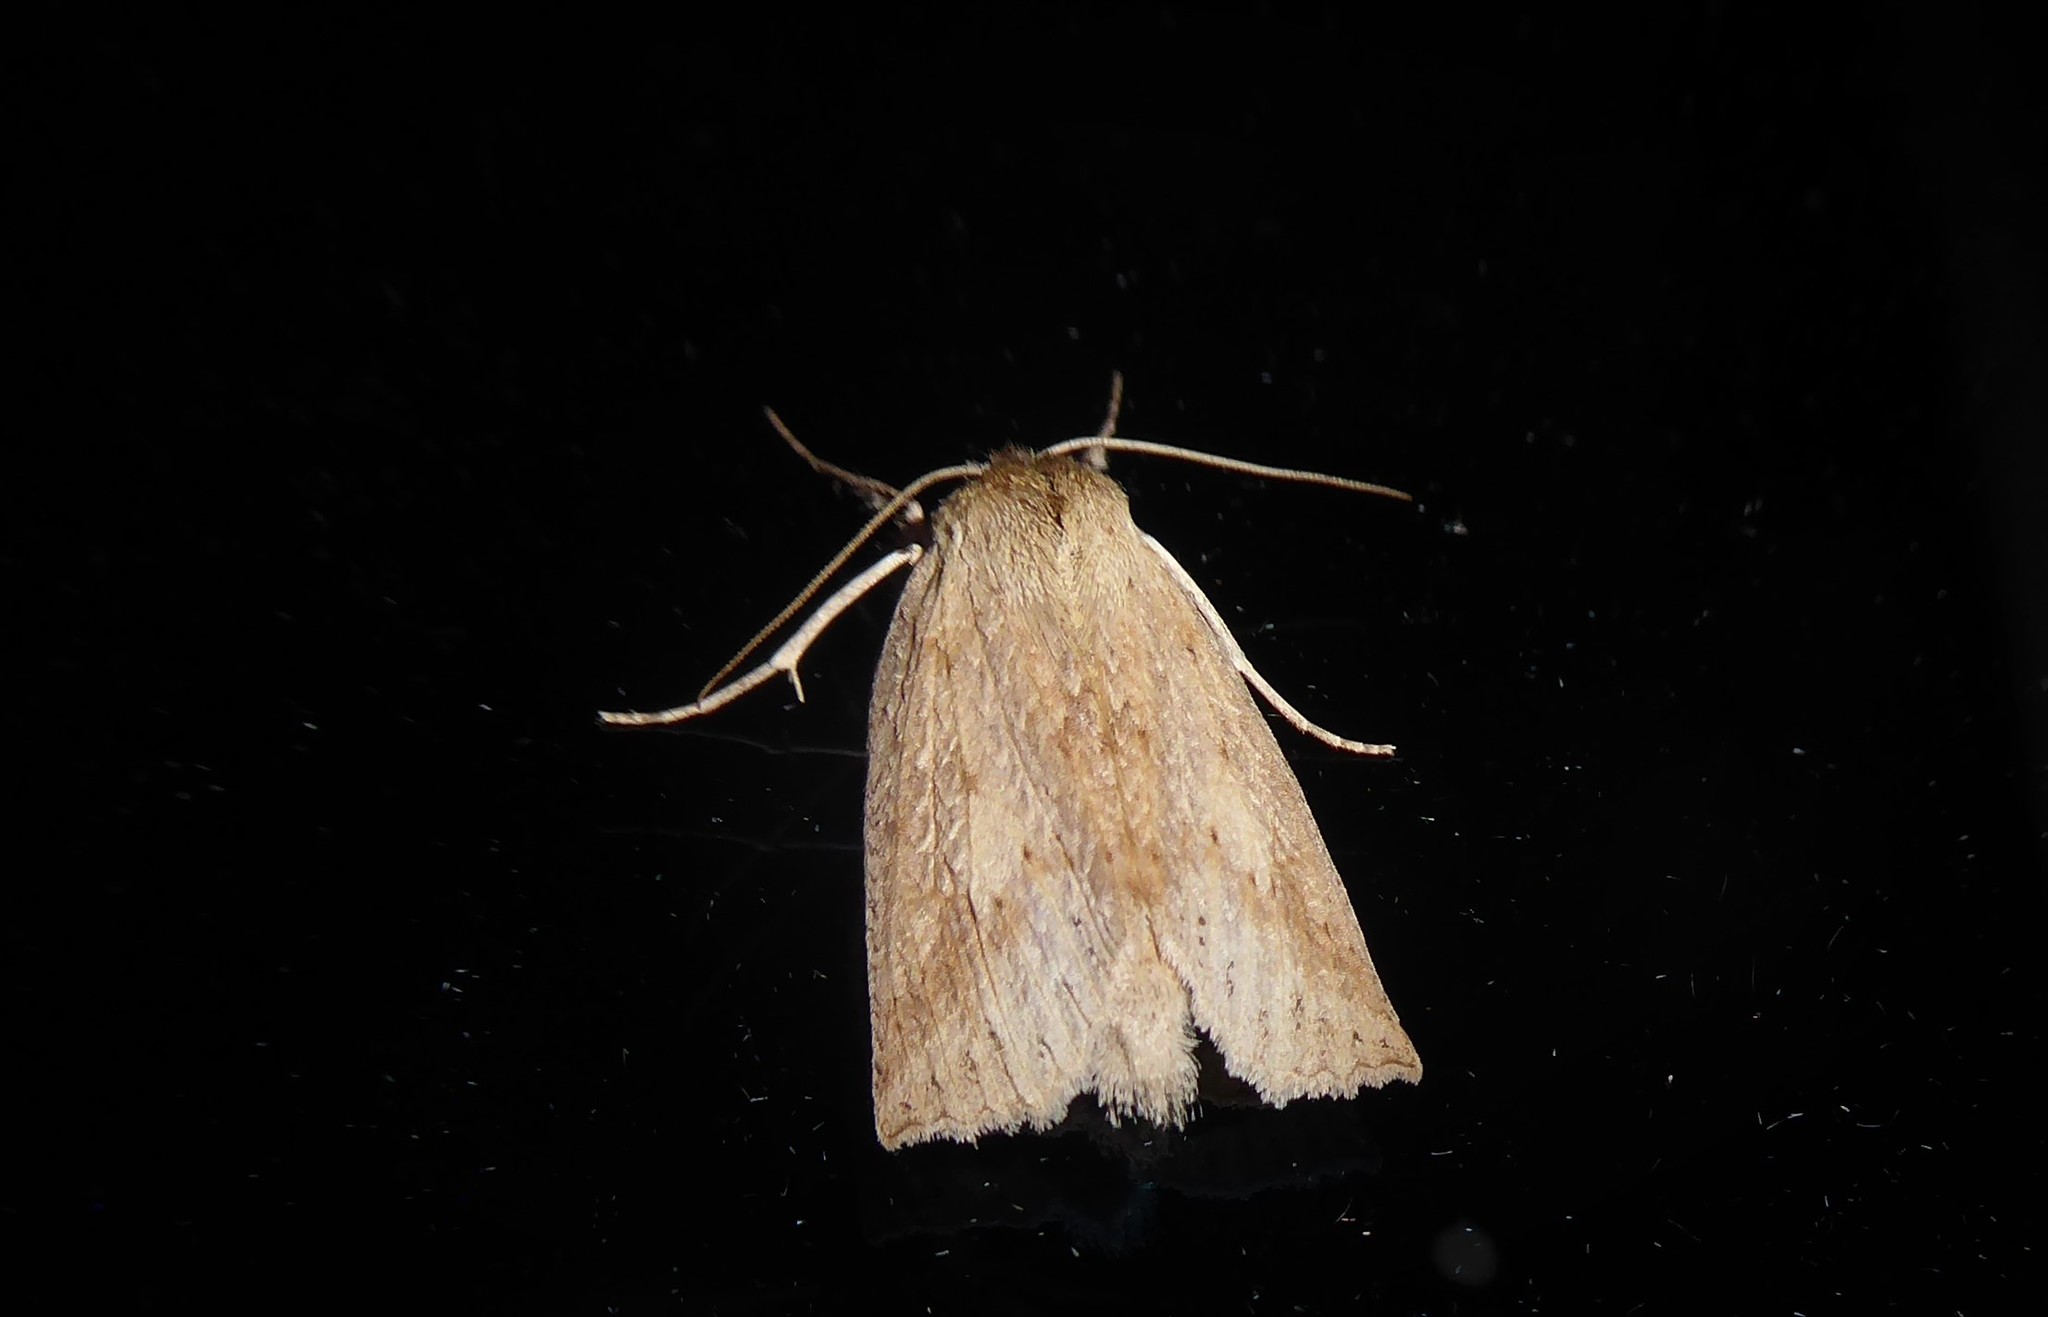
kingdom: Animalia
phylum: Arthropoda
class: Insecta
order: Lepidoptera
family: Geometridae
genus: Declana
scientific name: Declana leptomera
